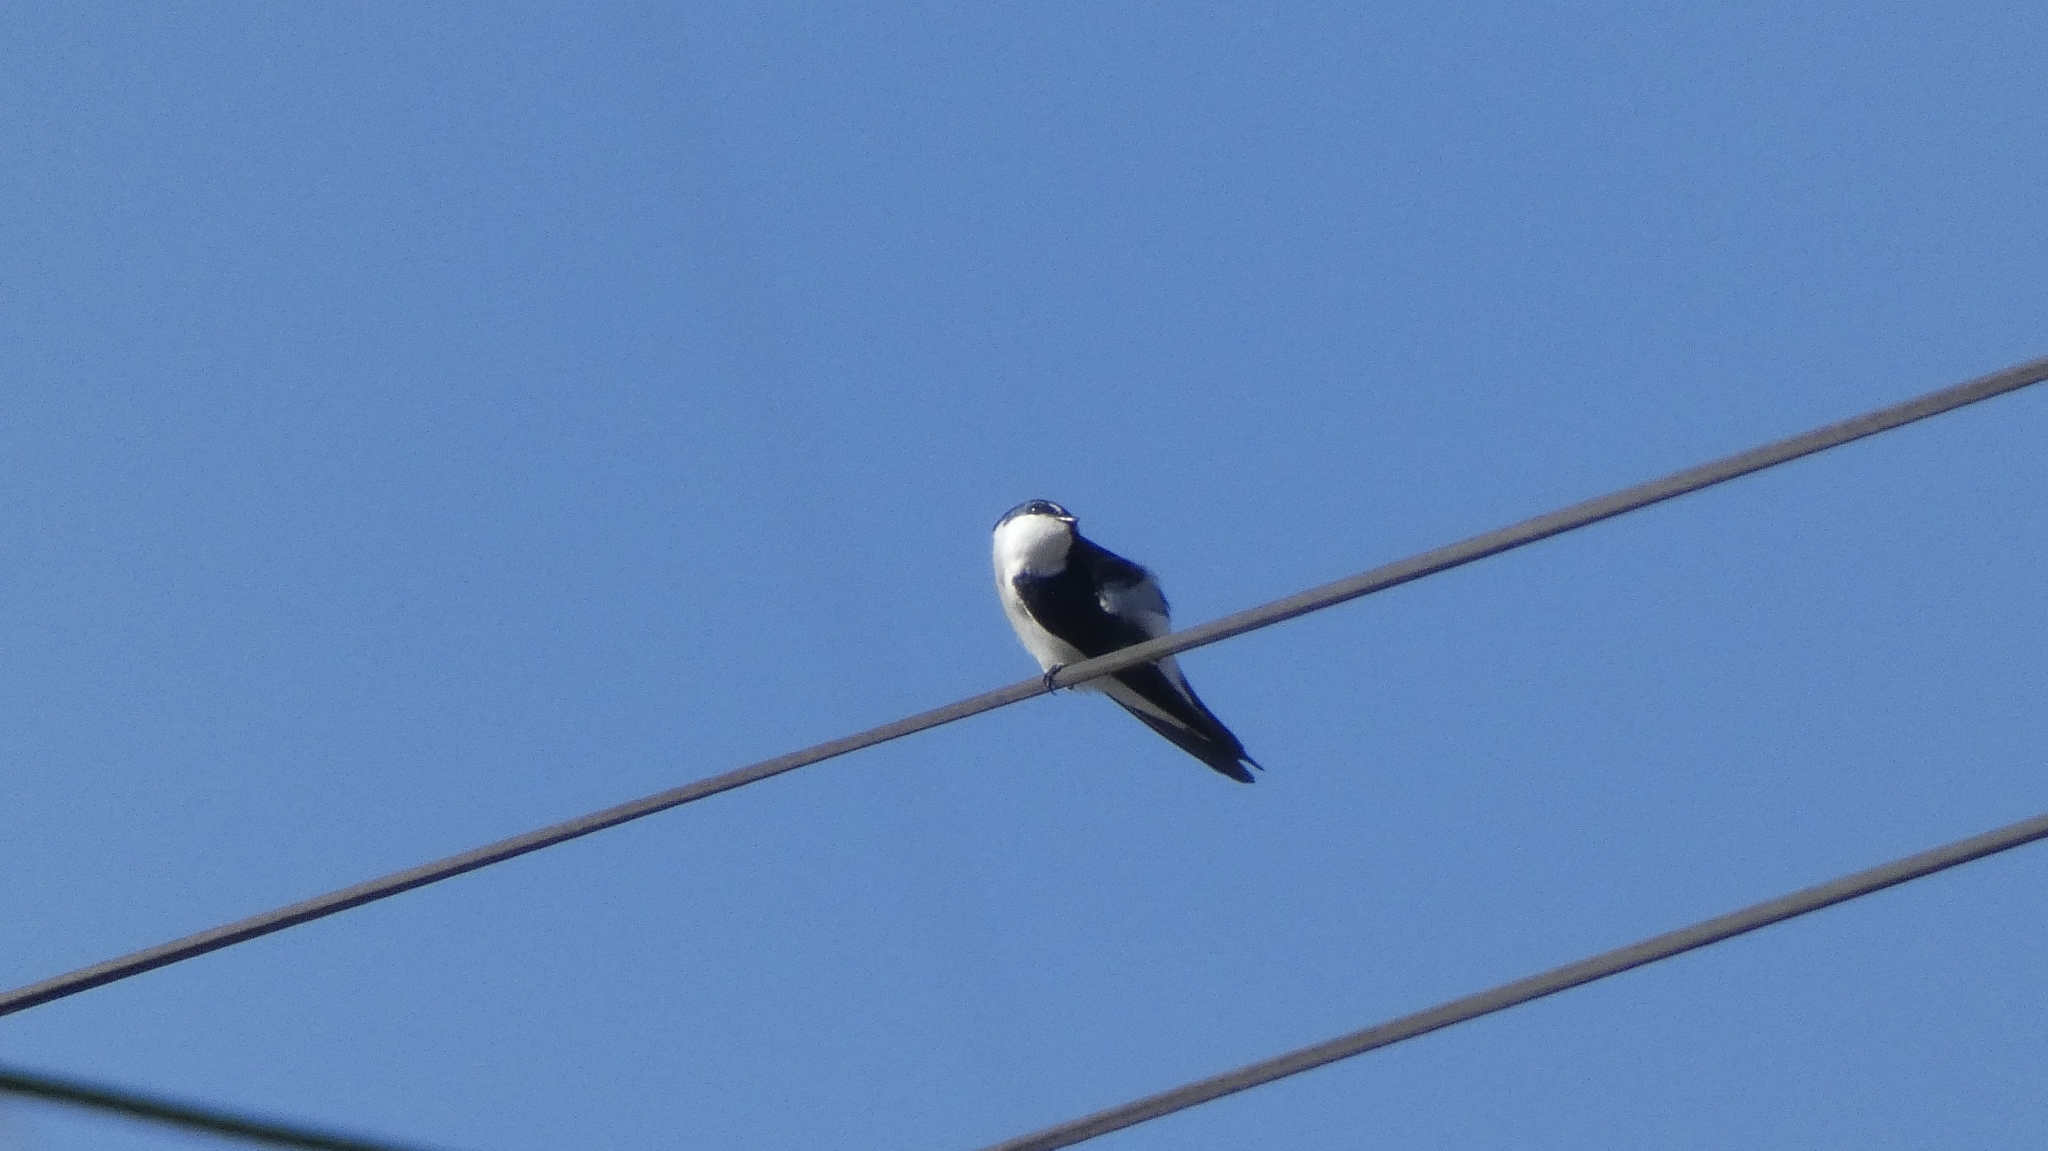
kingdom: Animalia
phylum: Chordata
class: Aves
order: Passeriformes
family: Hirundinidae
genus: Tachycineta
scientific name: Tachycineta albilinea
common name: Mangrove swallow
